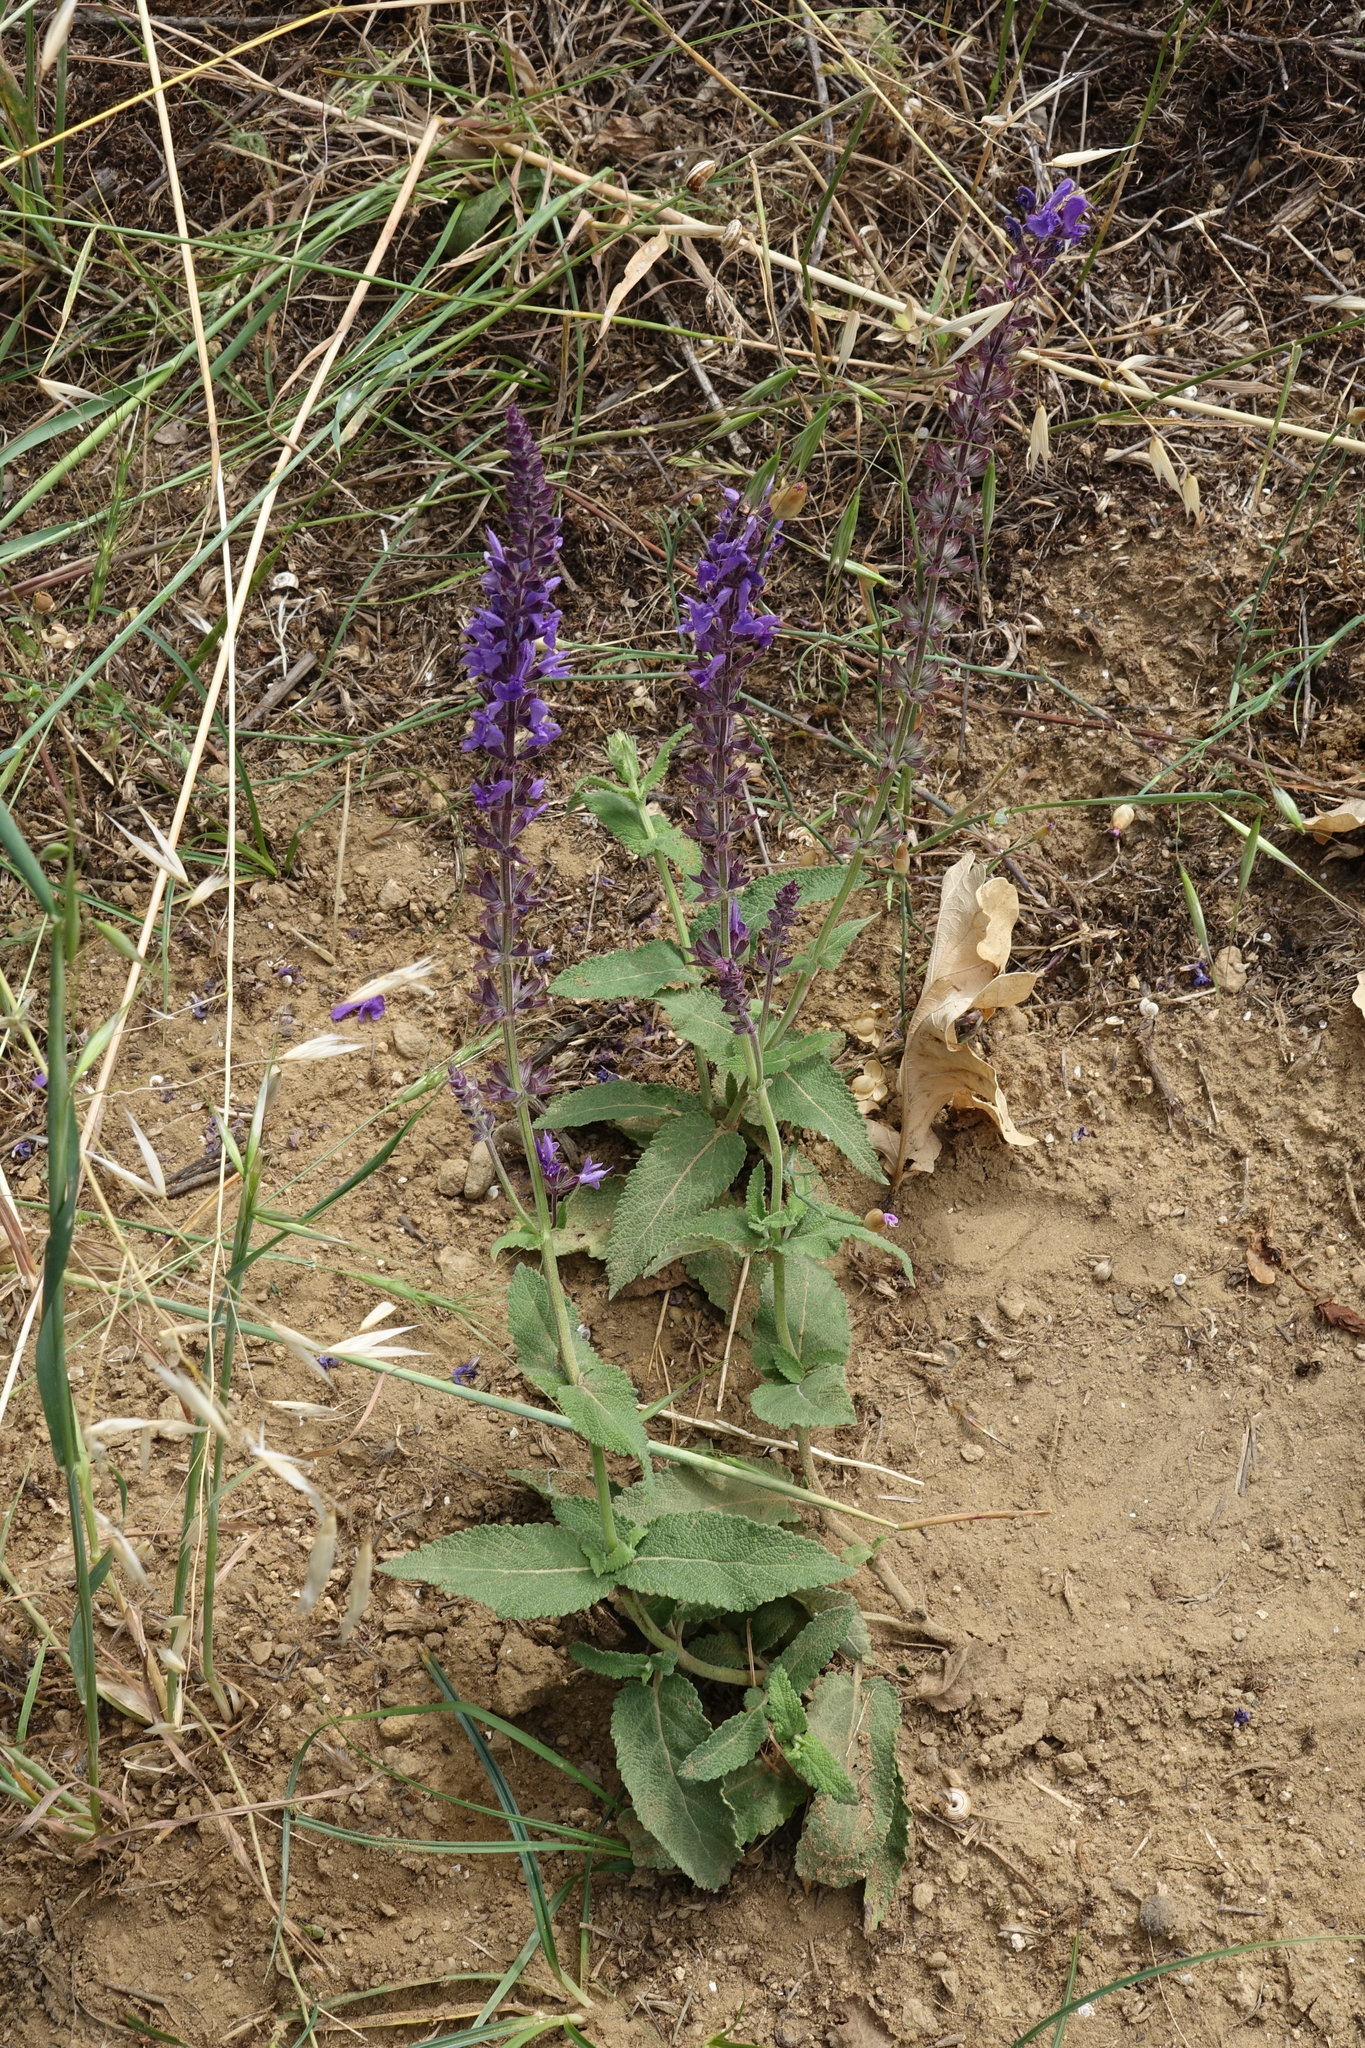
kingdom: Plantae
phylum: Tracheophyta
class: Magnoliopsida
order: Lamiales
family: Lamiaceae
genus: Salvia
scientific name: Salvia nemorosa
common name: Balkan clary
